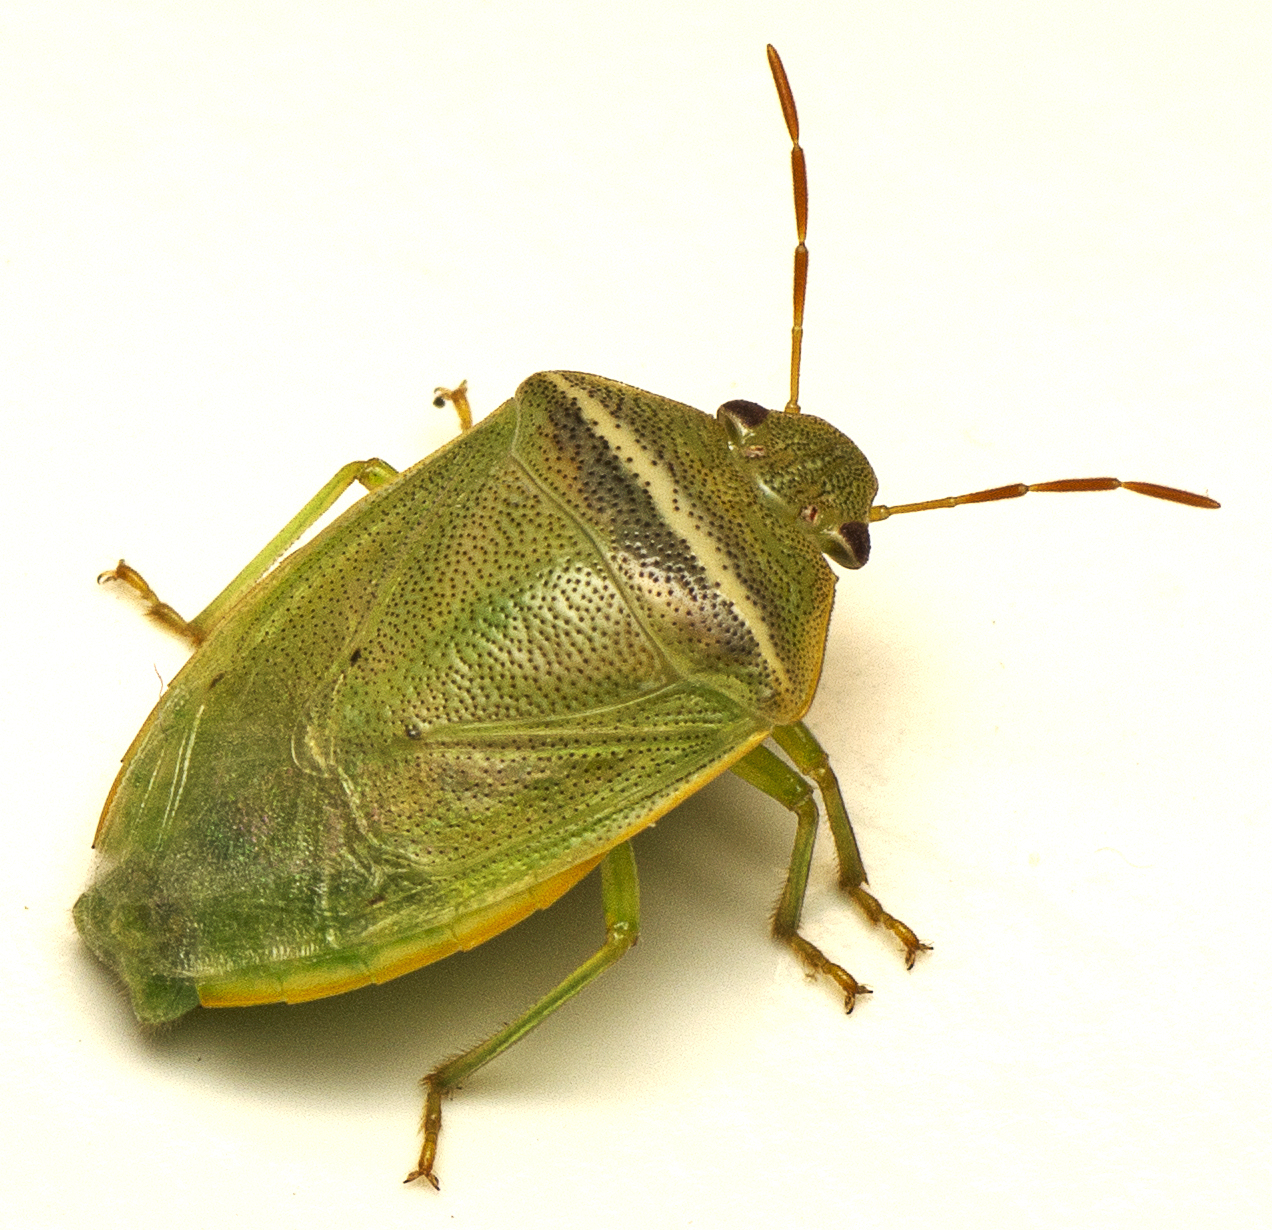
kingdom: Animalia
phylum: Arthropoda
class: Insecta
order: Hemiptera
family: Pentatomidae
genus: Piezodorus
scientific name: Piezodorus oceanicus
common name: Stink bug
